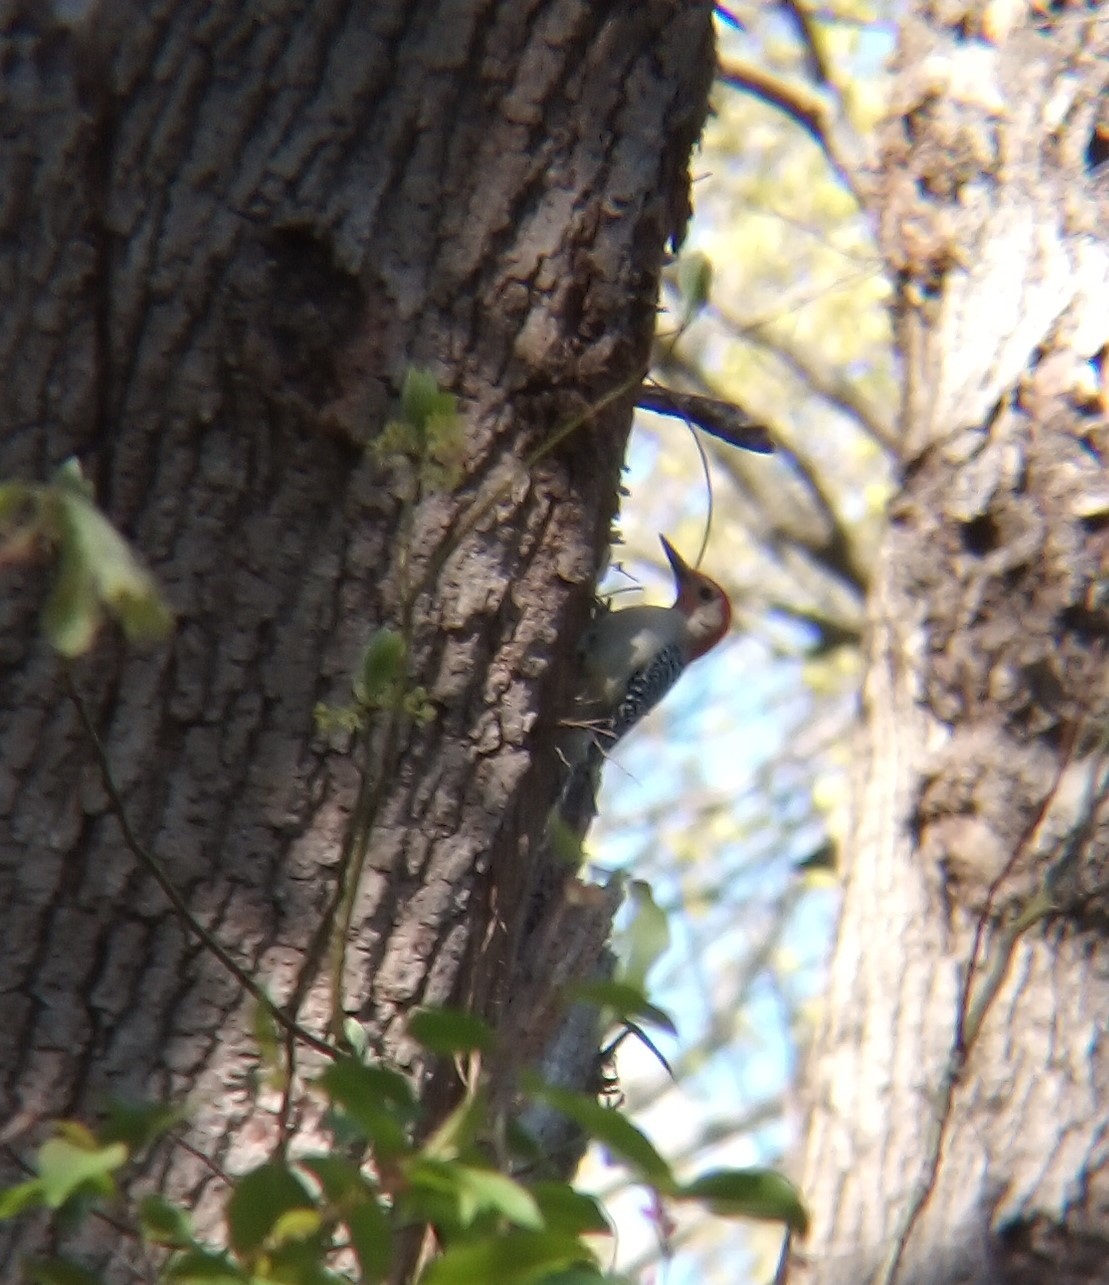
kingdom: Animalia
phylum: Chordata
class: Aves
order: Piciformes
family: Picidae
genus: Melanerpes
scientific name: Melanerpes carolinus
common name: Red-bellied woodpecker
